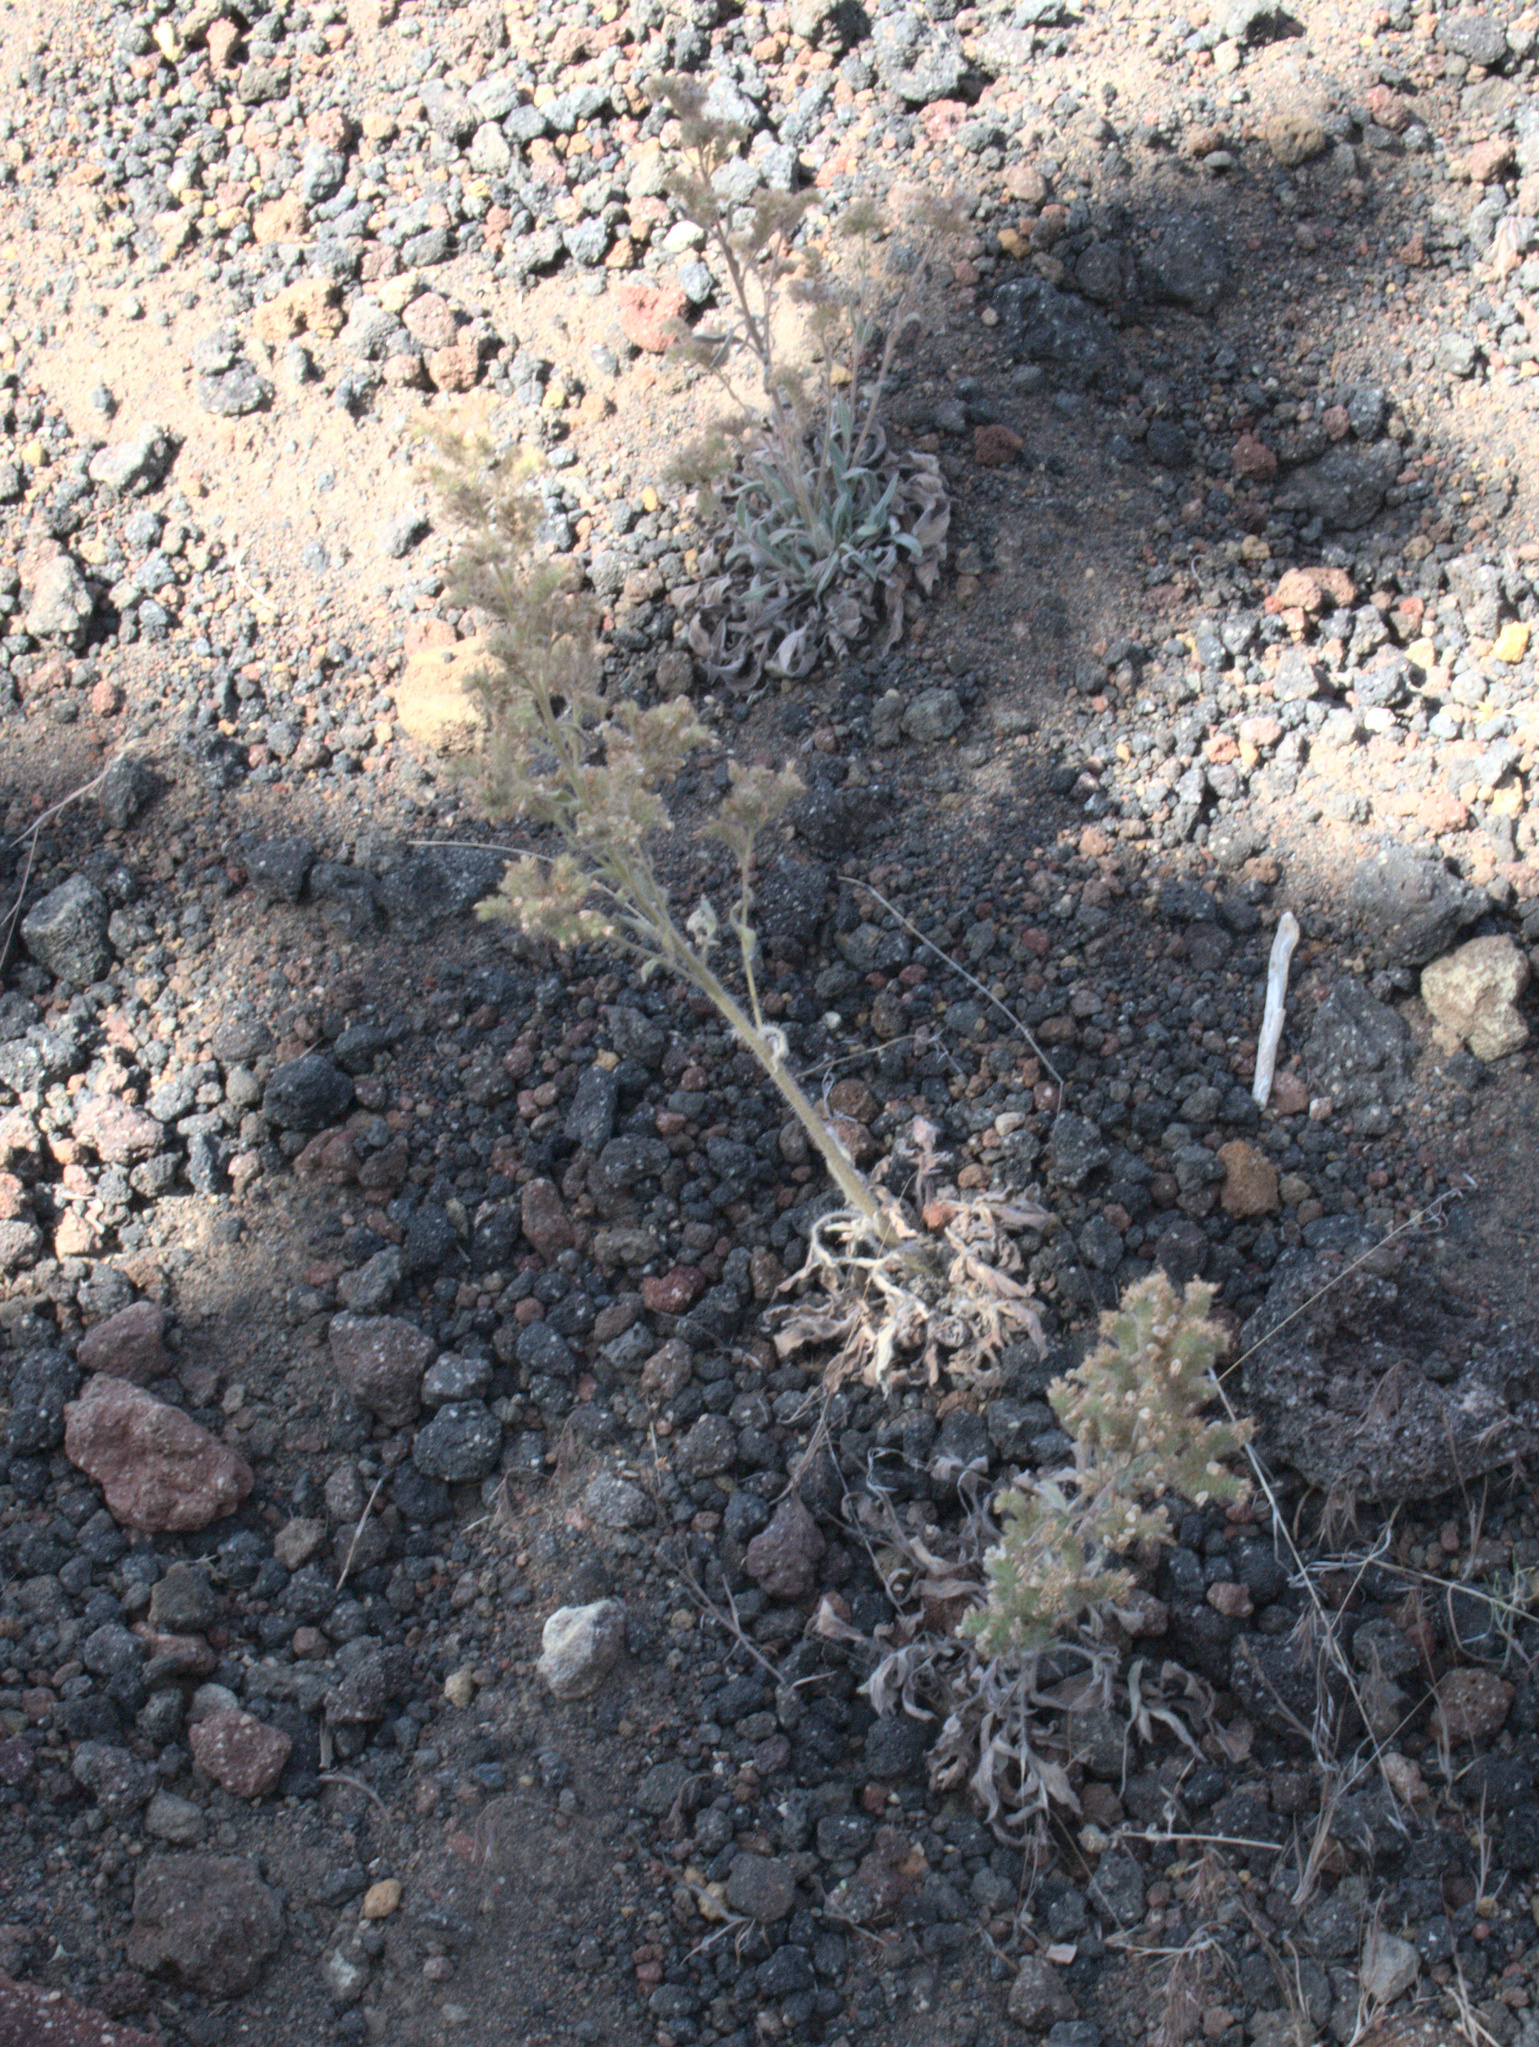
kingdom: Plantae
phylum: Tracheophyta
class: Magnoliopsida
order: Boraginales
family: Hydrophyllaceae
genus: Phacelia
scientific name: Phacelia heterophylla
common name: Variable-leaved phacelia
